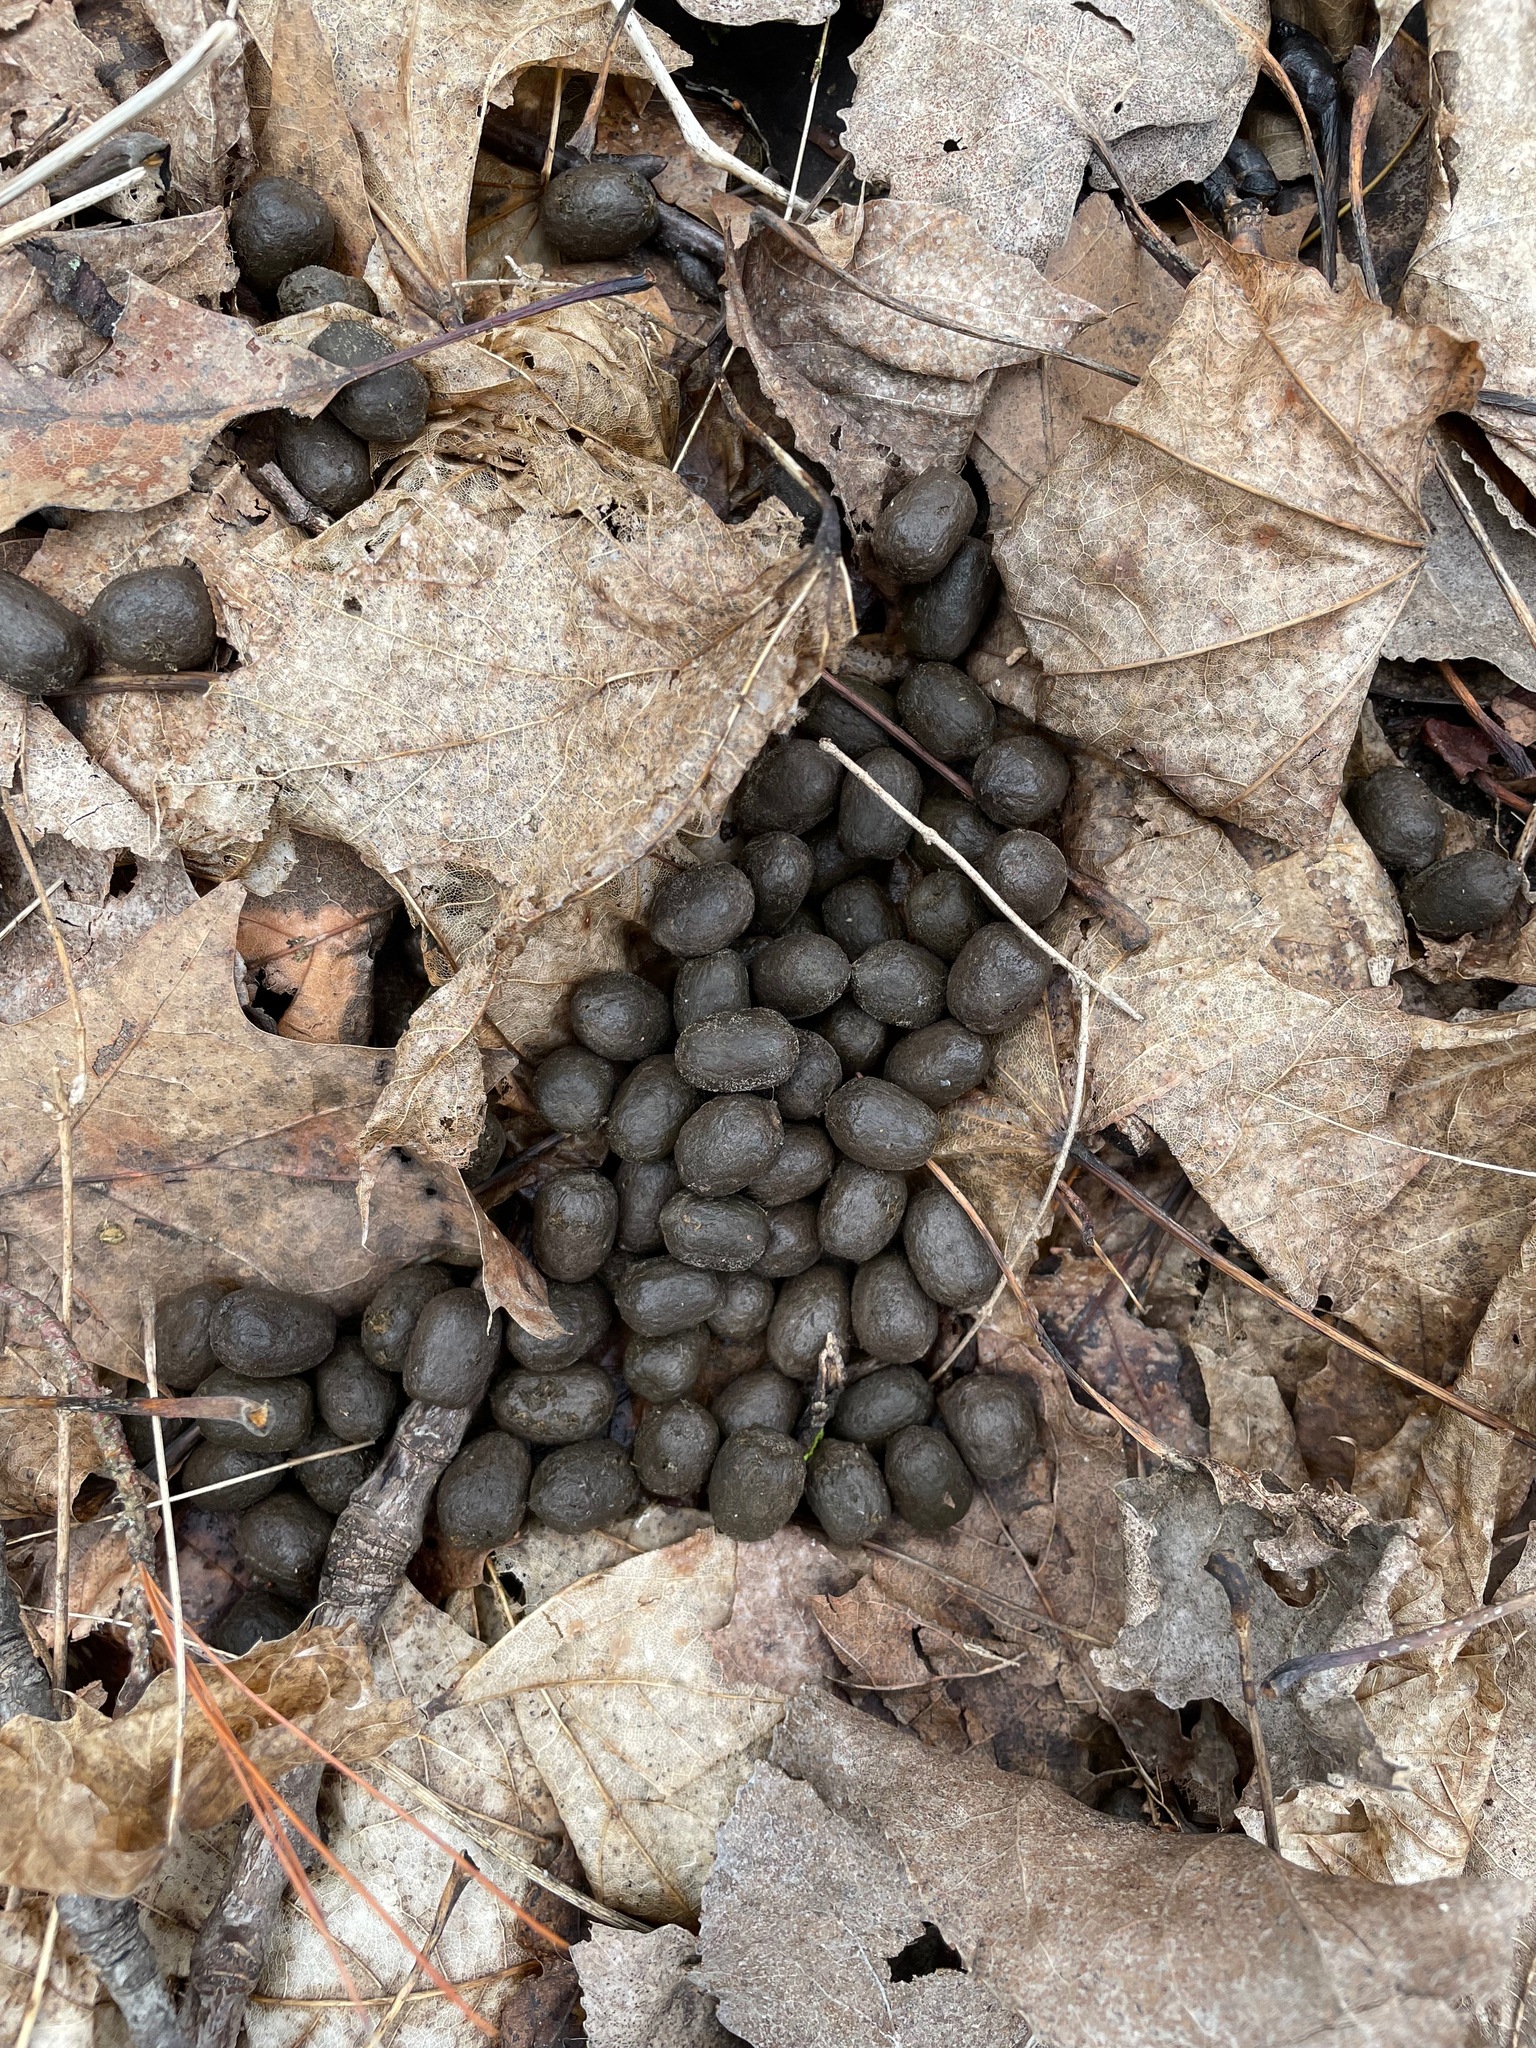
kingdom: Animalia
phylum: Chordata
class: Mammalia
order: Artiodactyla
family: Cervidae
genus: Odocoileus
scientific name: Odocoileus virginianus
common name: White-tailed deer
